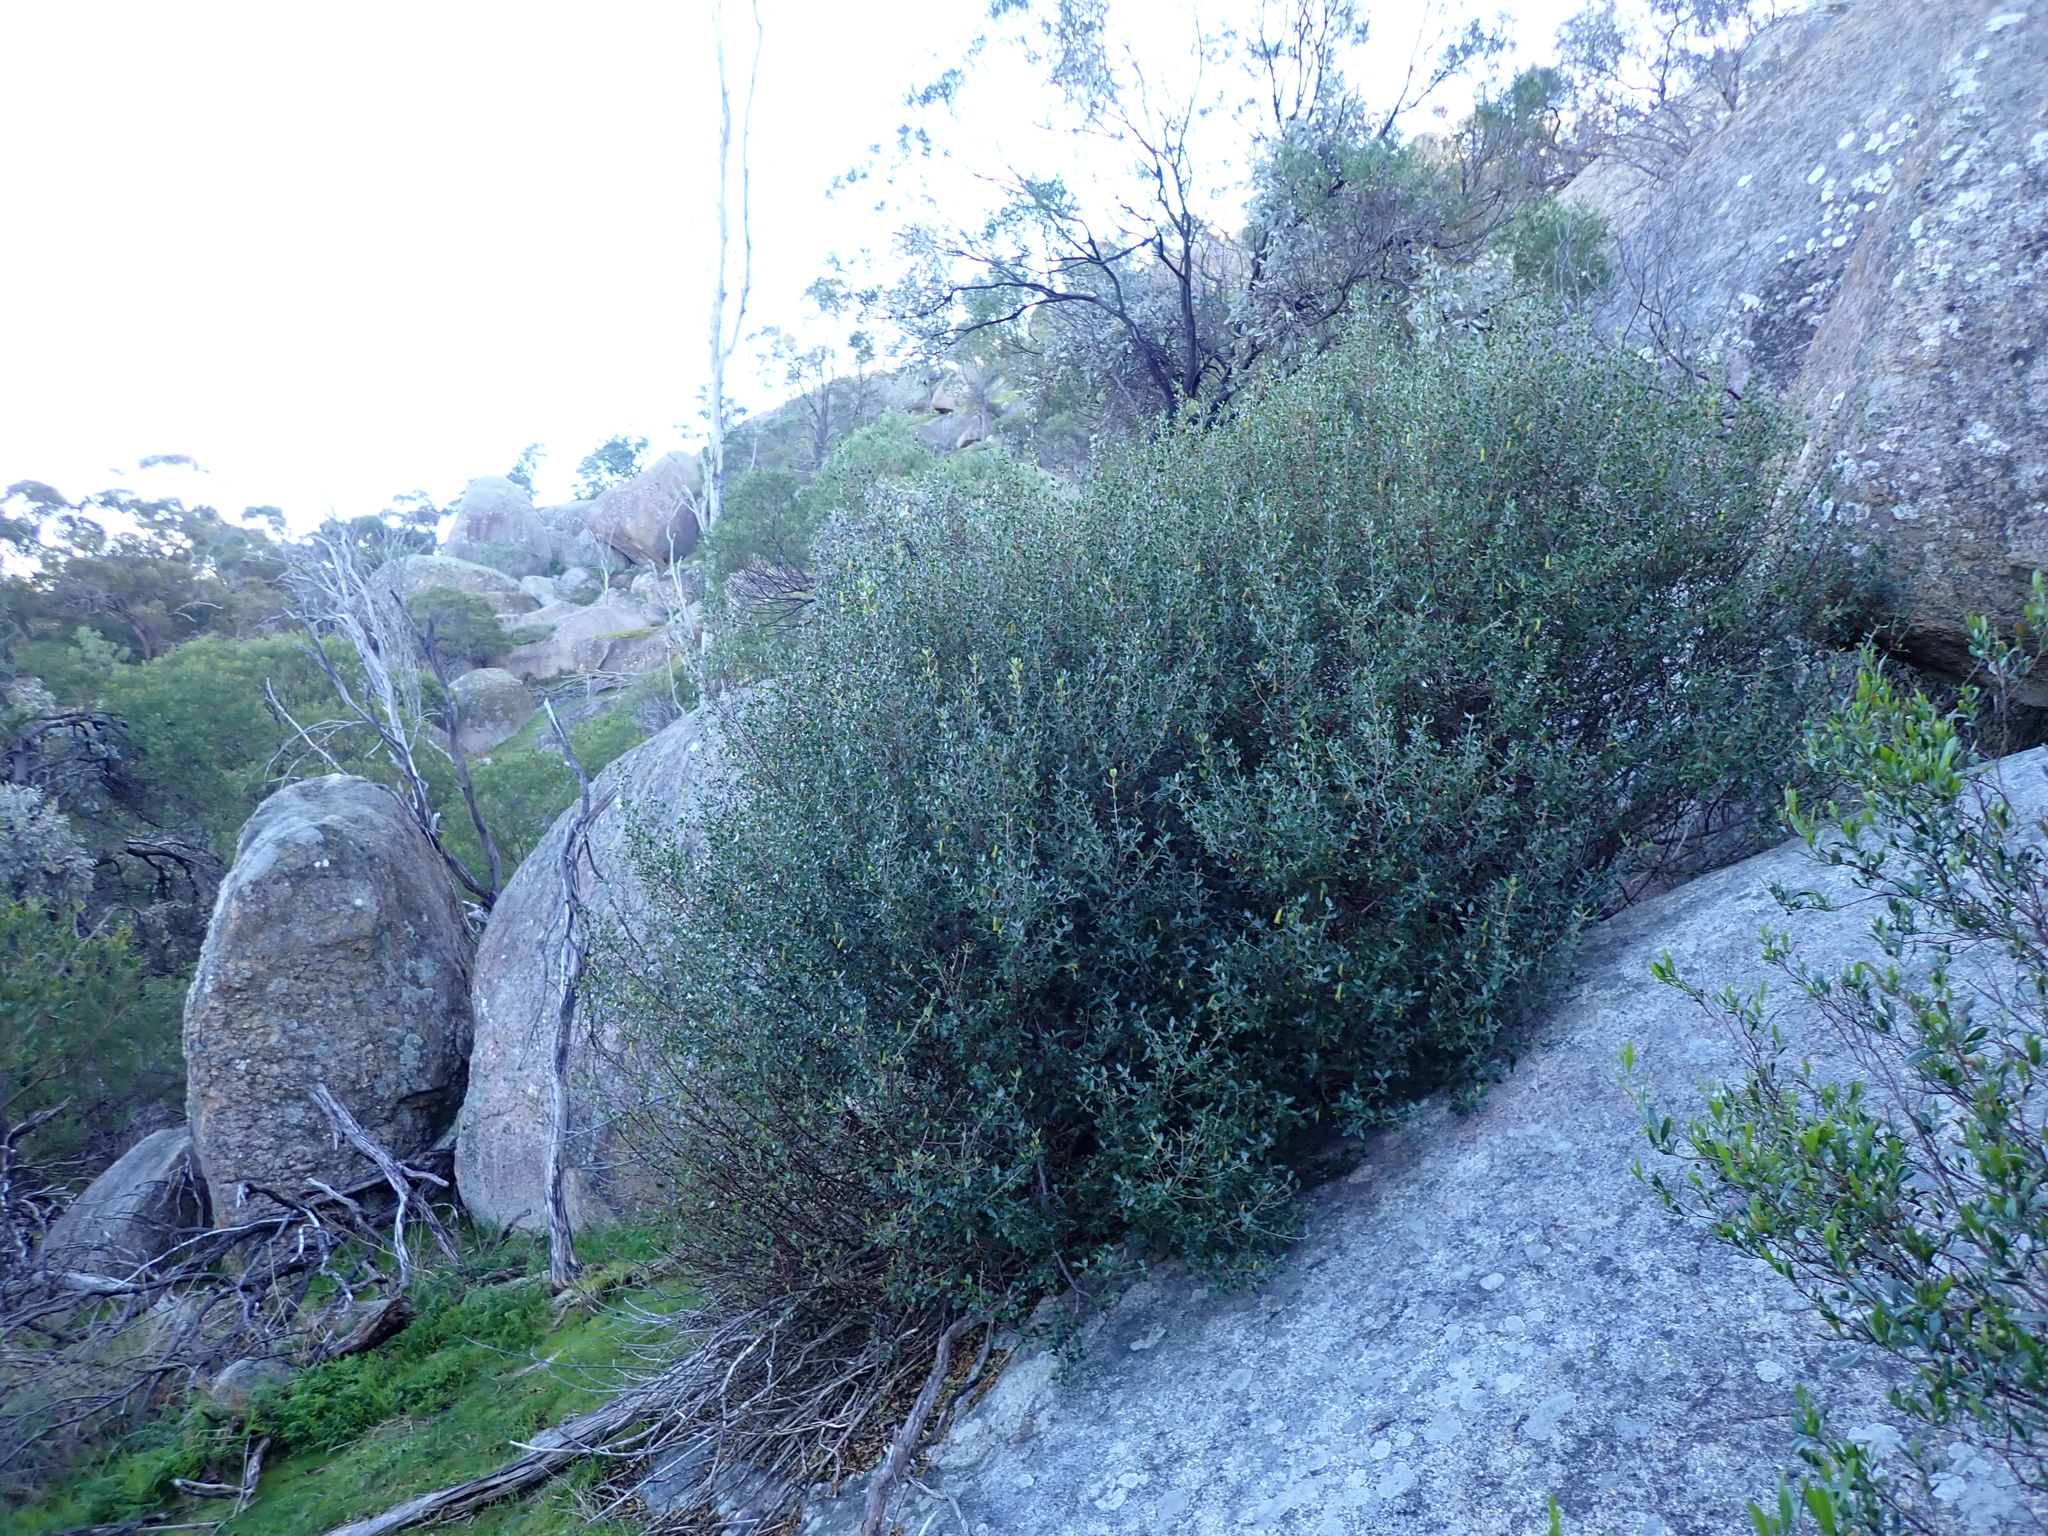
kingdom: Plantae
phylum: Tracheophyta
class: Magnoliopsida
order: Sapindales
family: Rutaceae
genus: Correa
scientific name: Correa glabra
